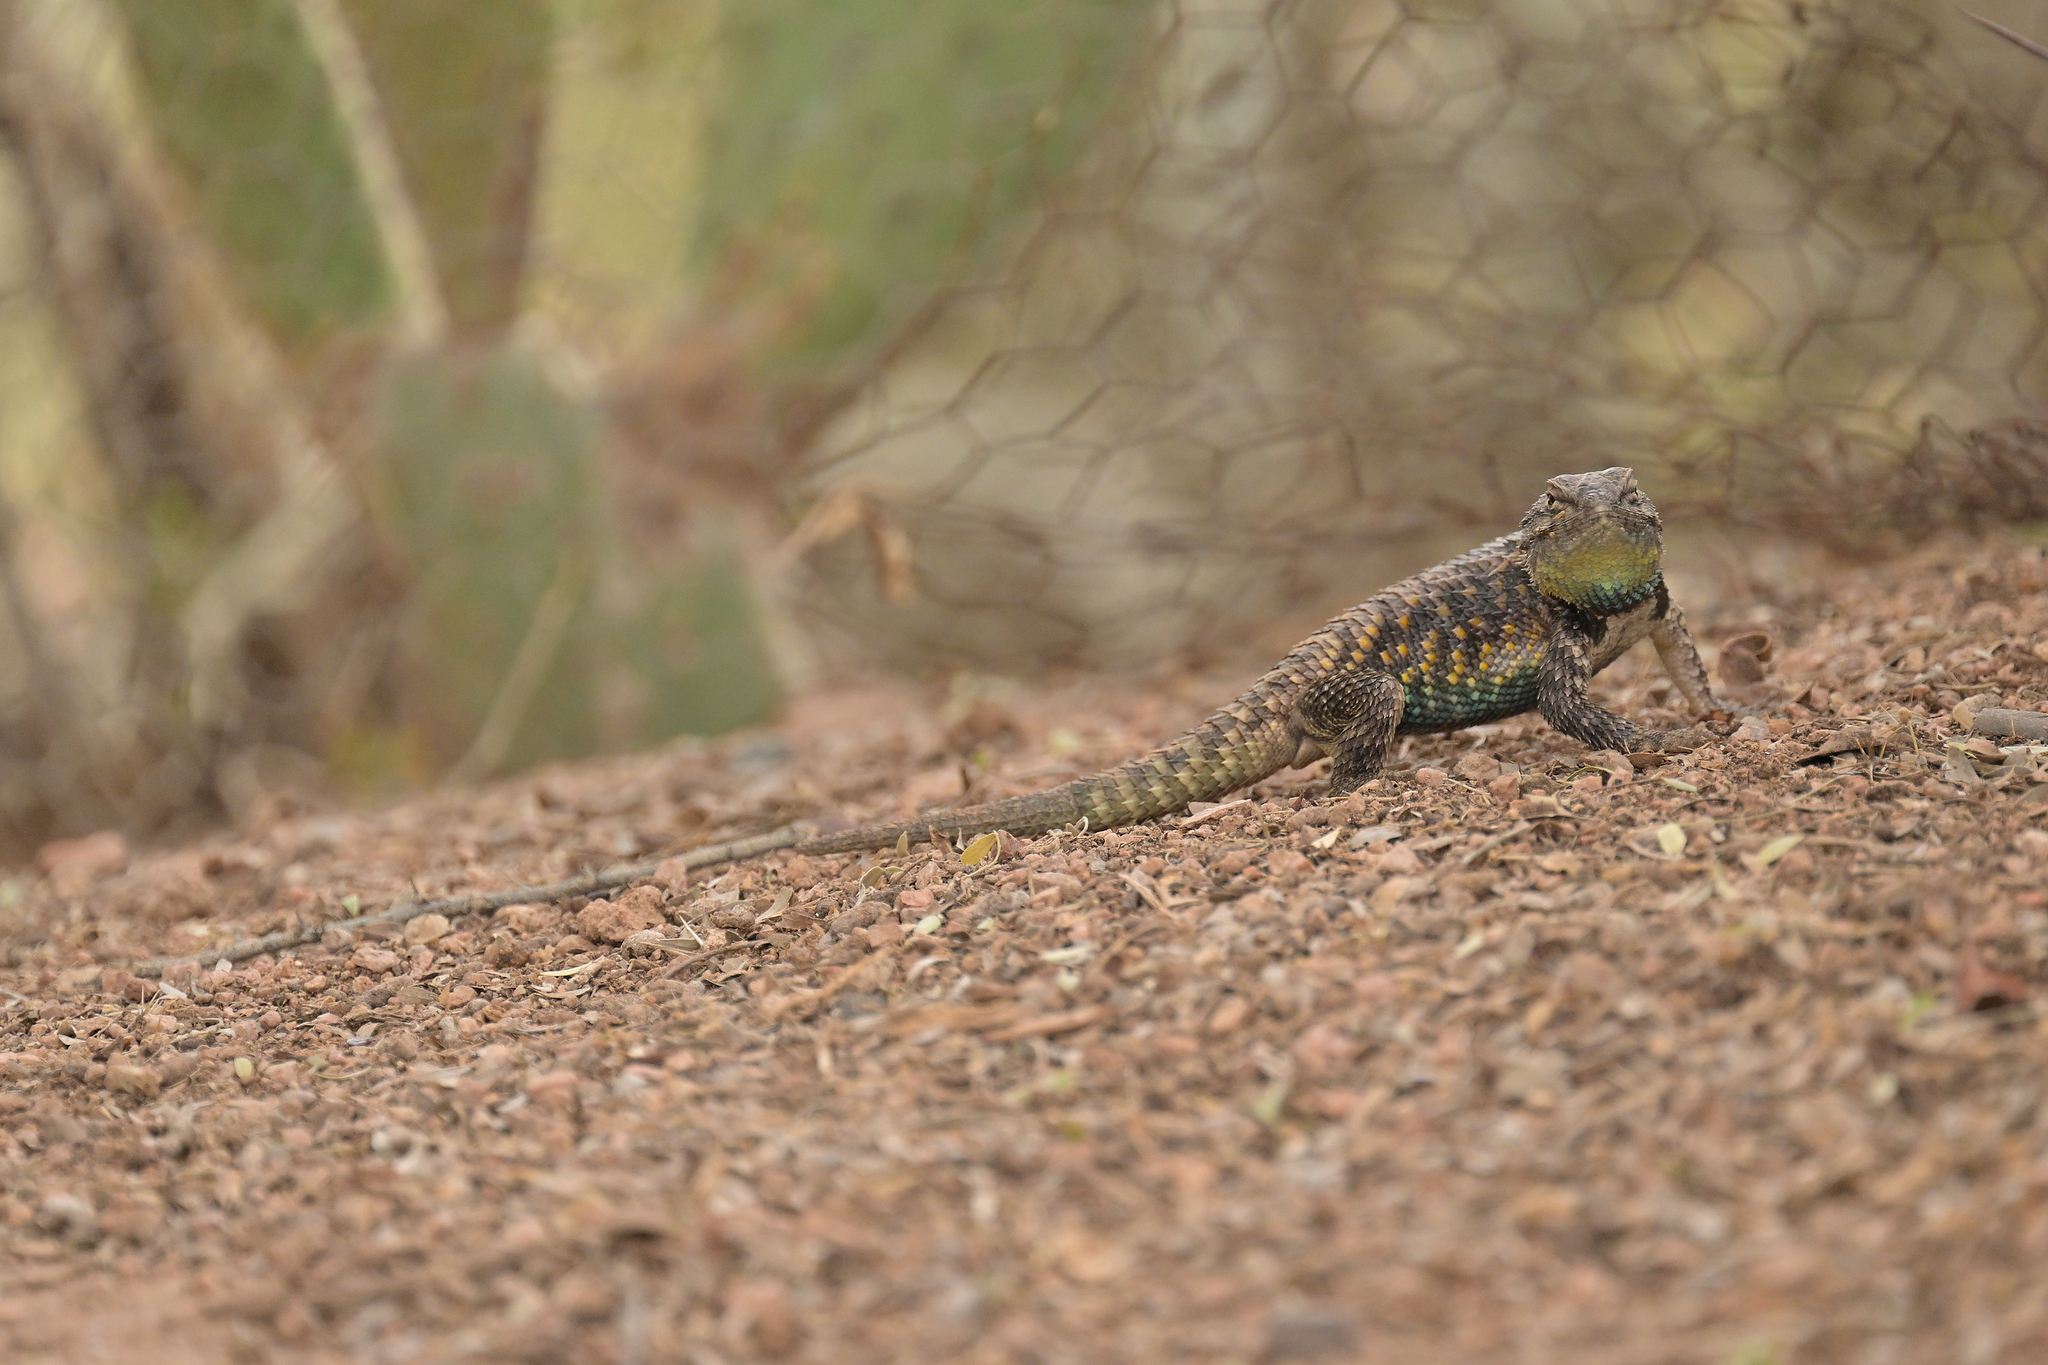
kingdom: Animalia
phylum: Chordata
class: Squamata
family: Phrynosomatidae
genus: Sceloporus
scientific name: Sceloporus magister
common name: Desert spiny lizard
